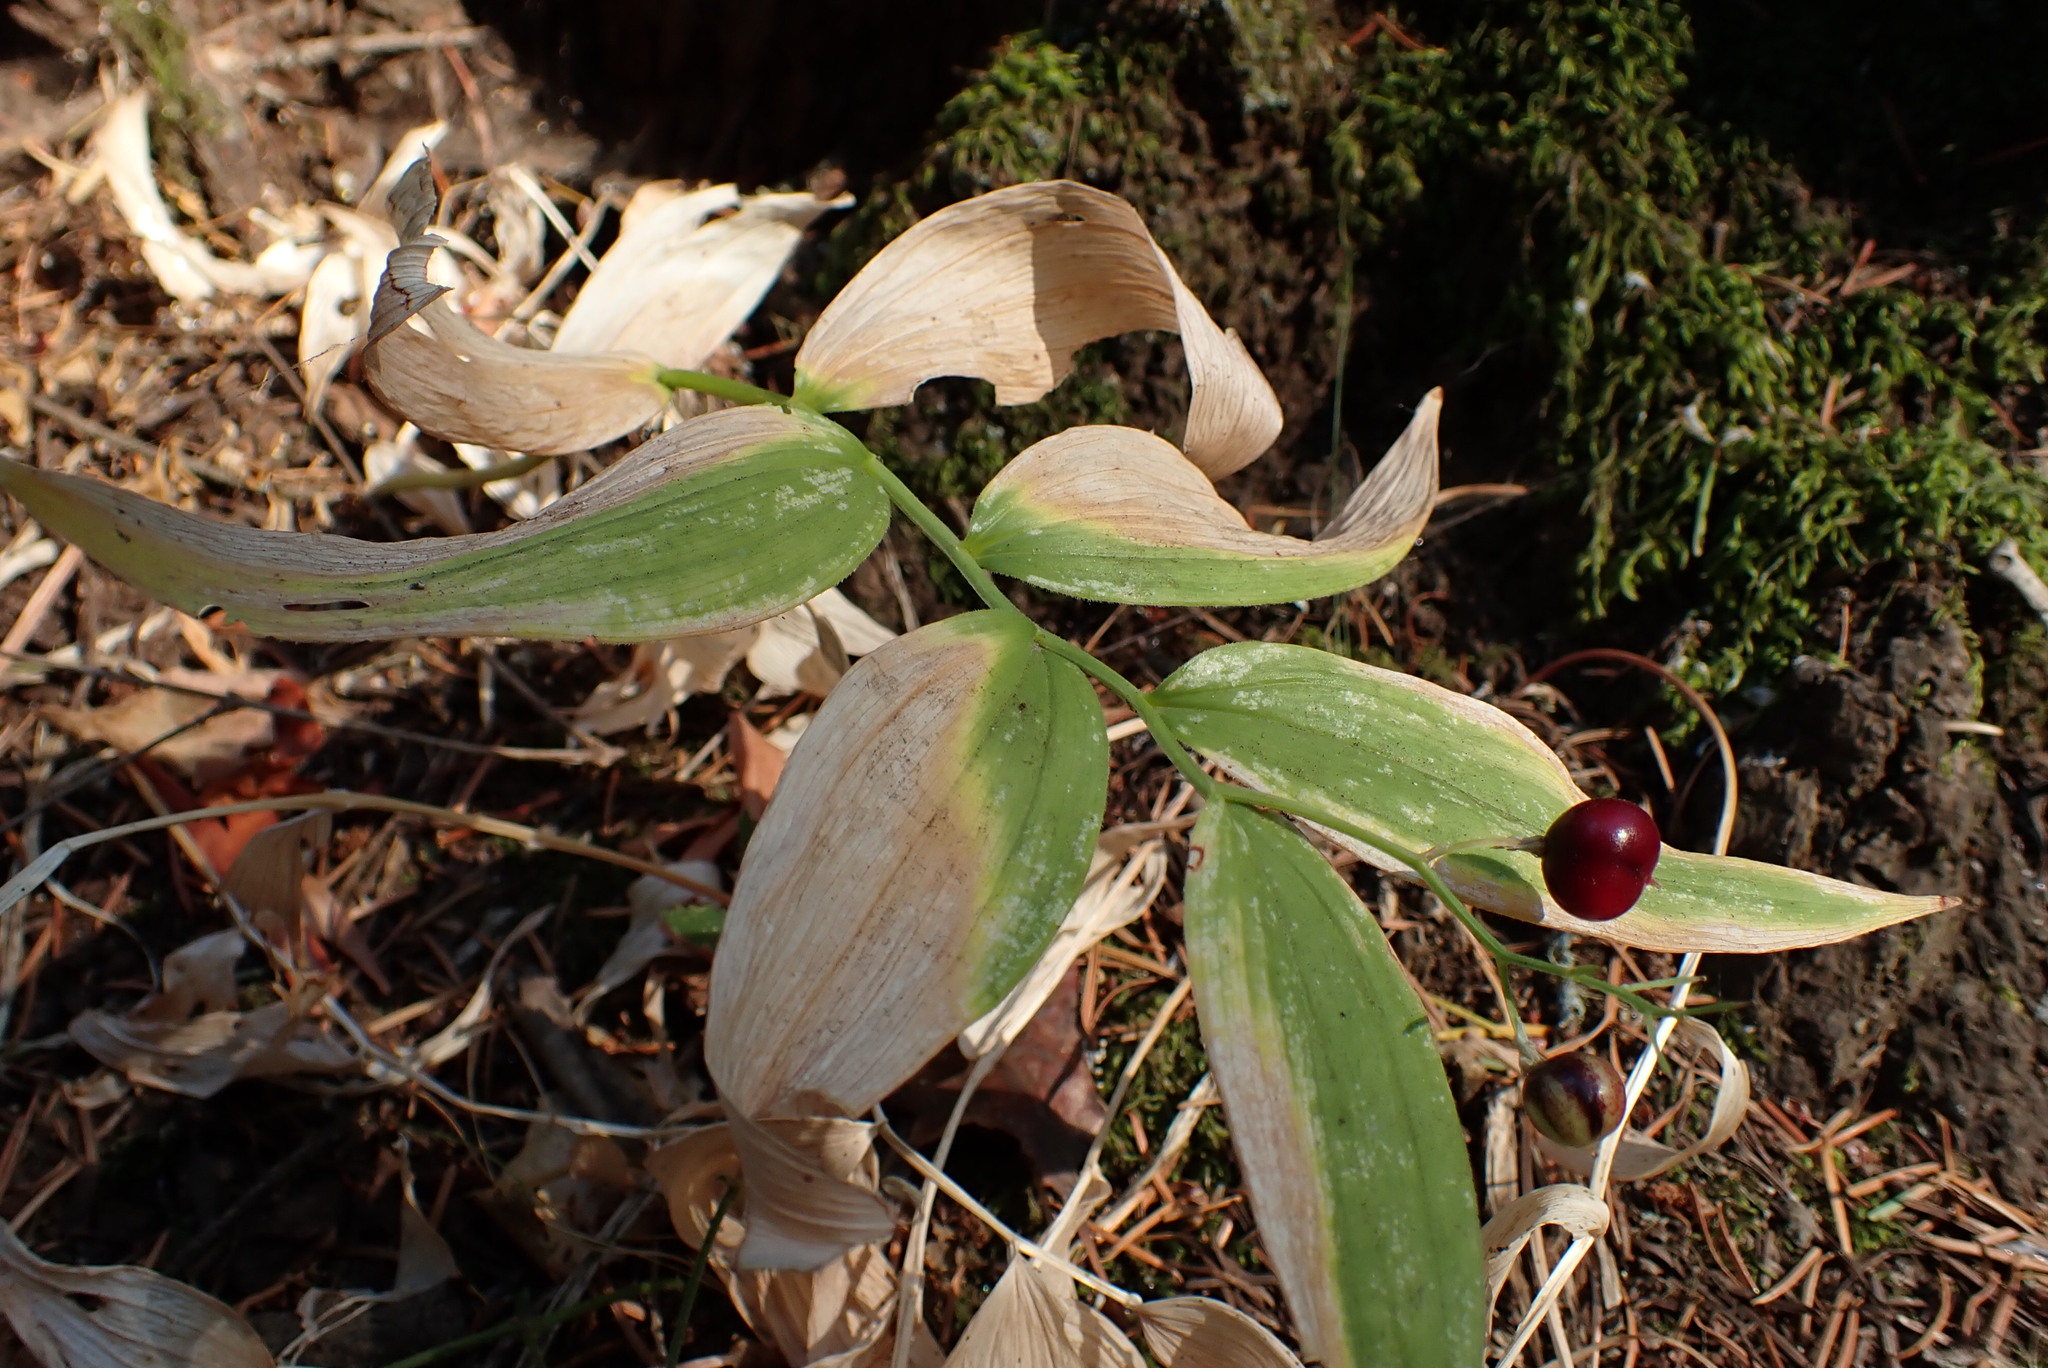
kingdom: Plantae
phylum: Tracheophyta
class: Liliopsida
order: Asparagales
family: Asparagaceae
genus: Maianthemum
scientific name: Maianthemum stellatum
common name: Little false solomon's seal
